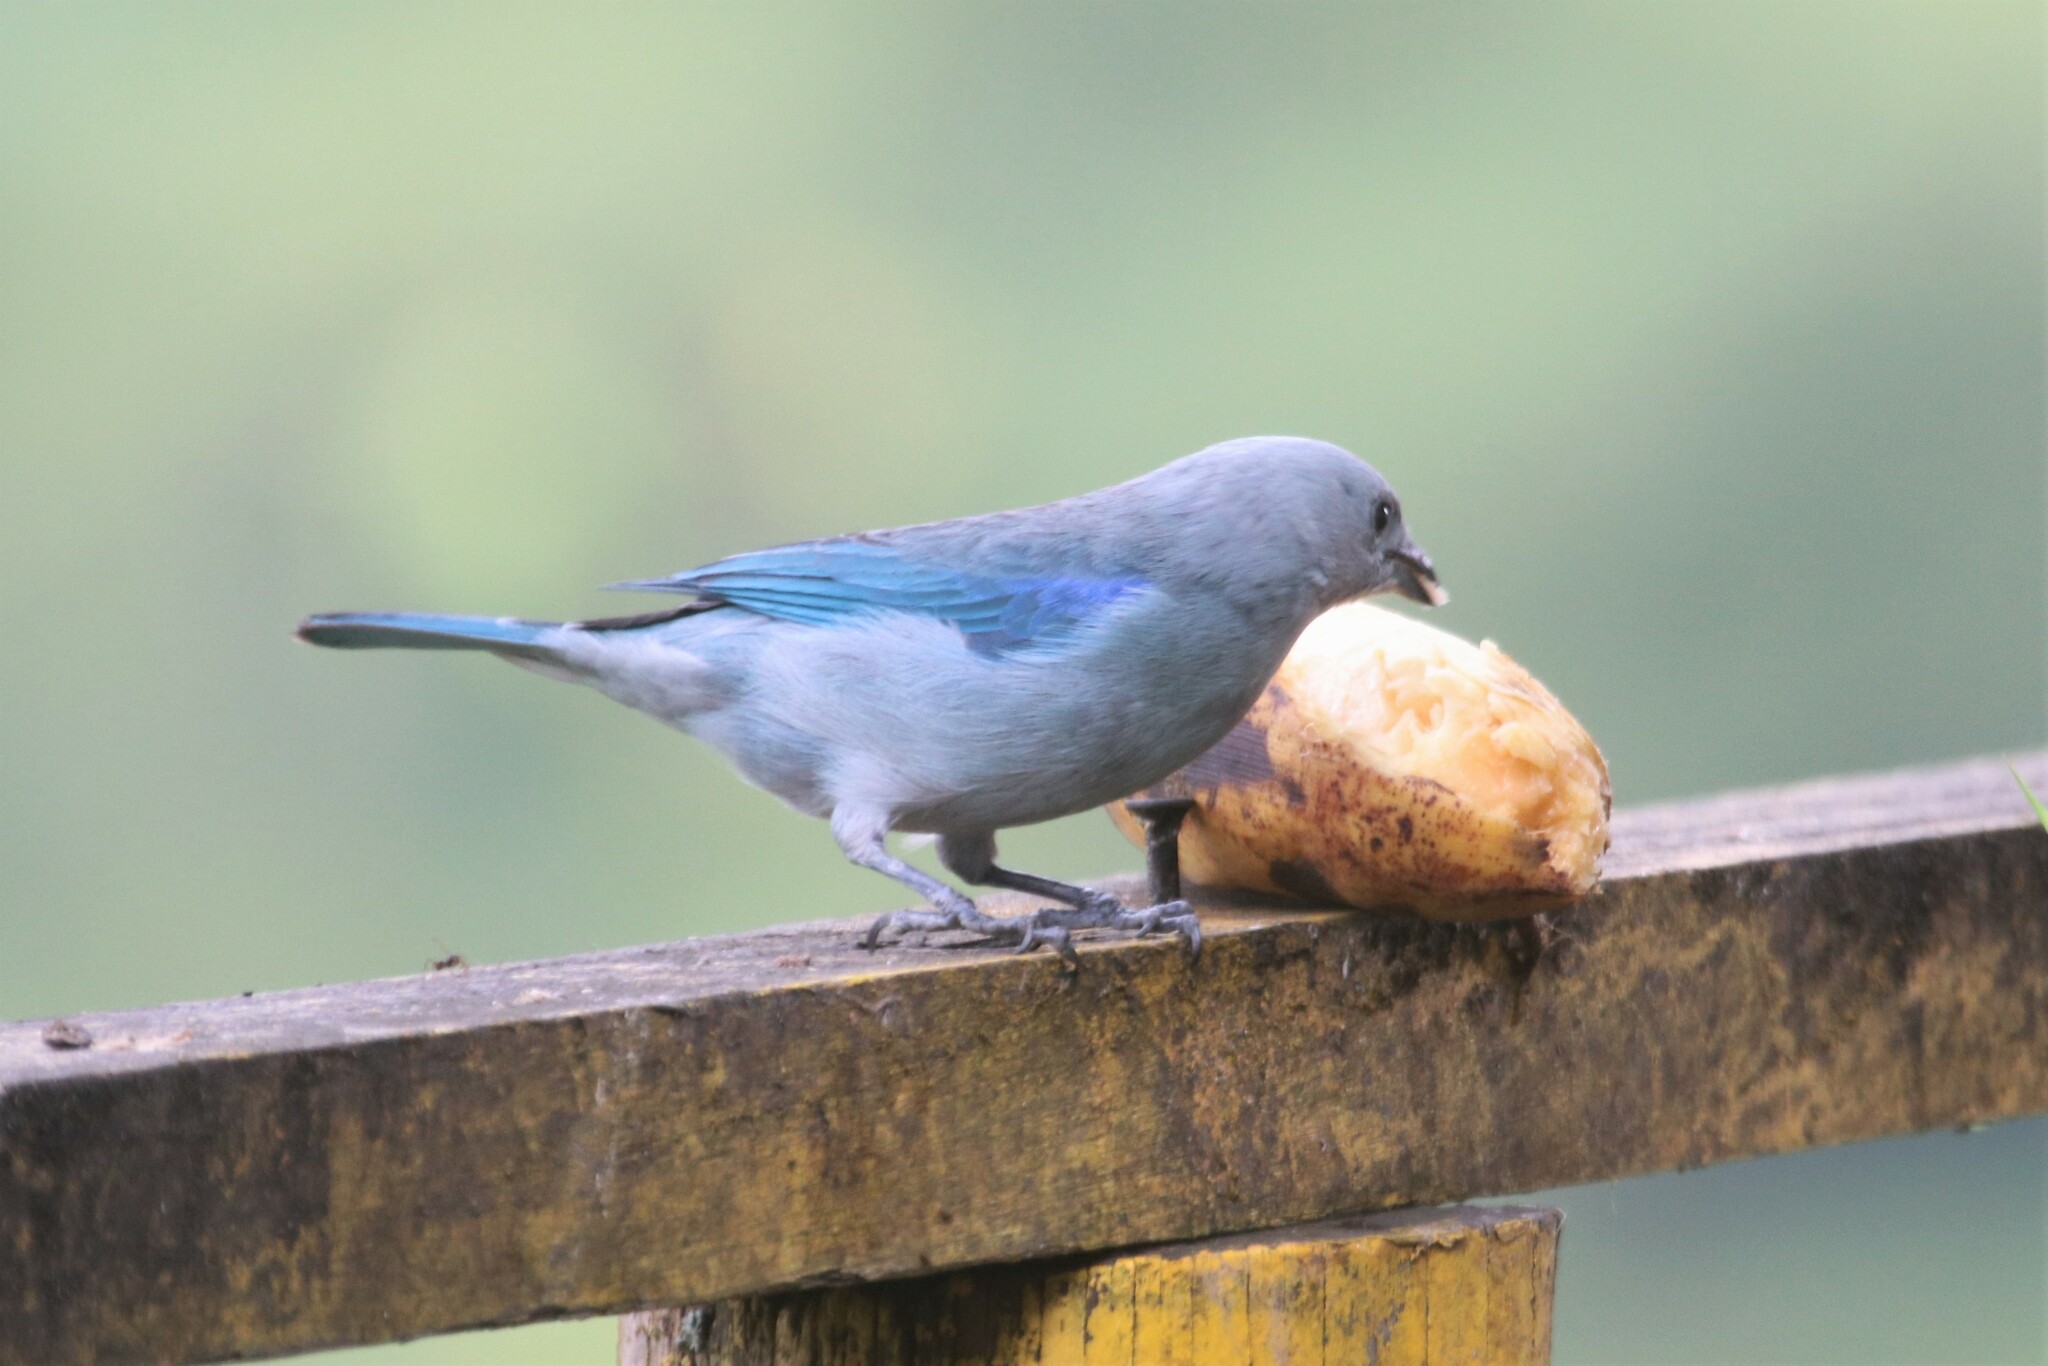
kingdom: Animalia
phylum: Chordata
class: Aves
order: Passeriformes
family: Thraupidae
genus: Thraupis
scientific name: Thraupis episcopus
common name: Blue-grey tanager
